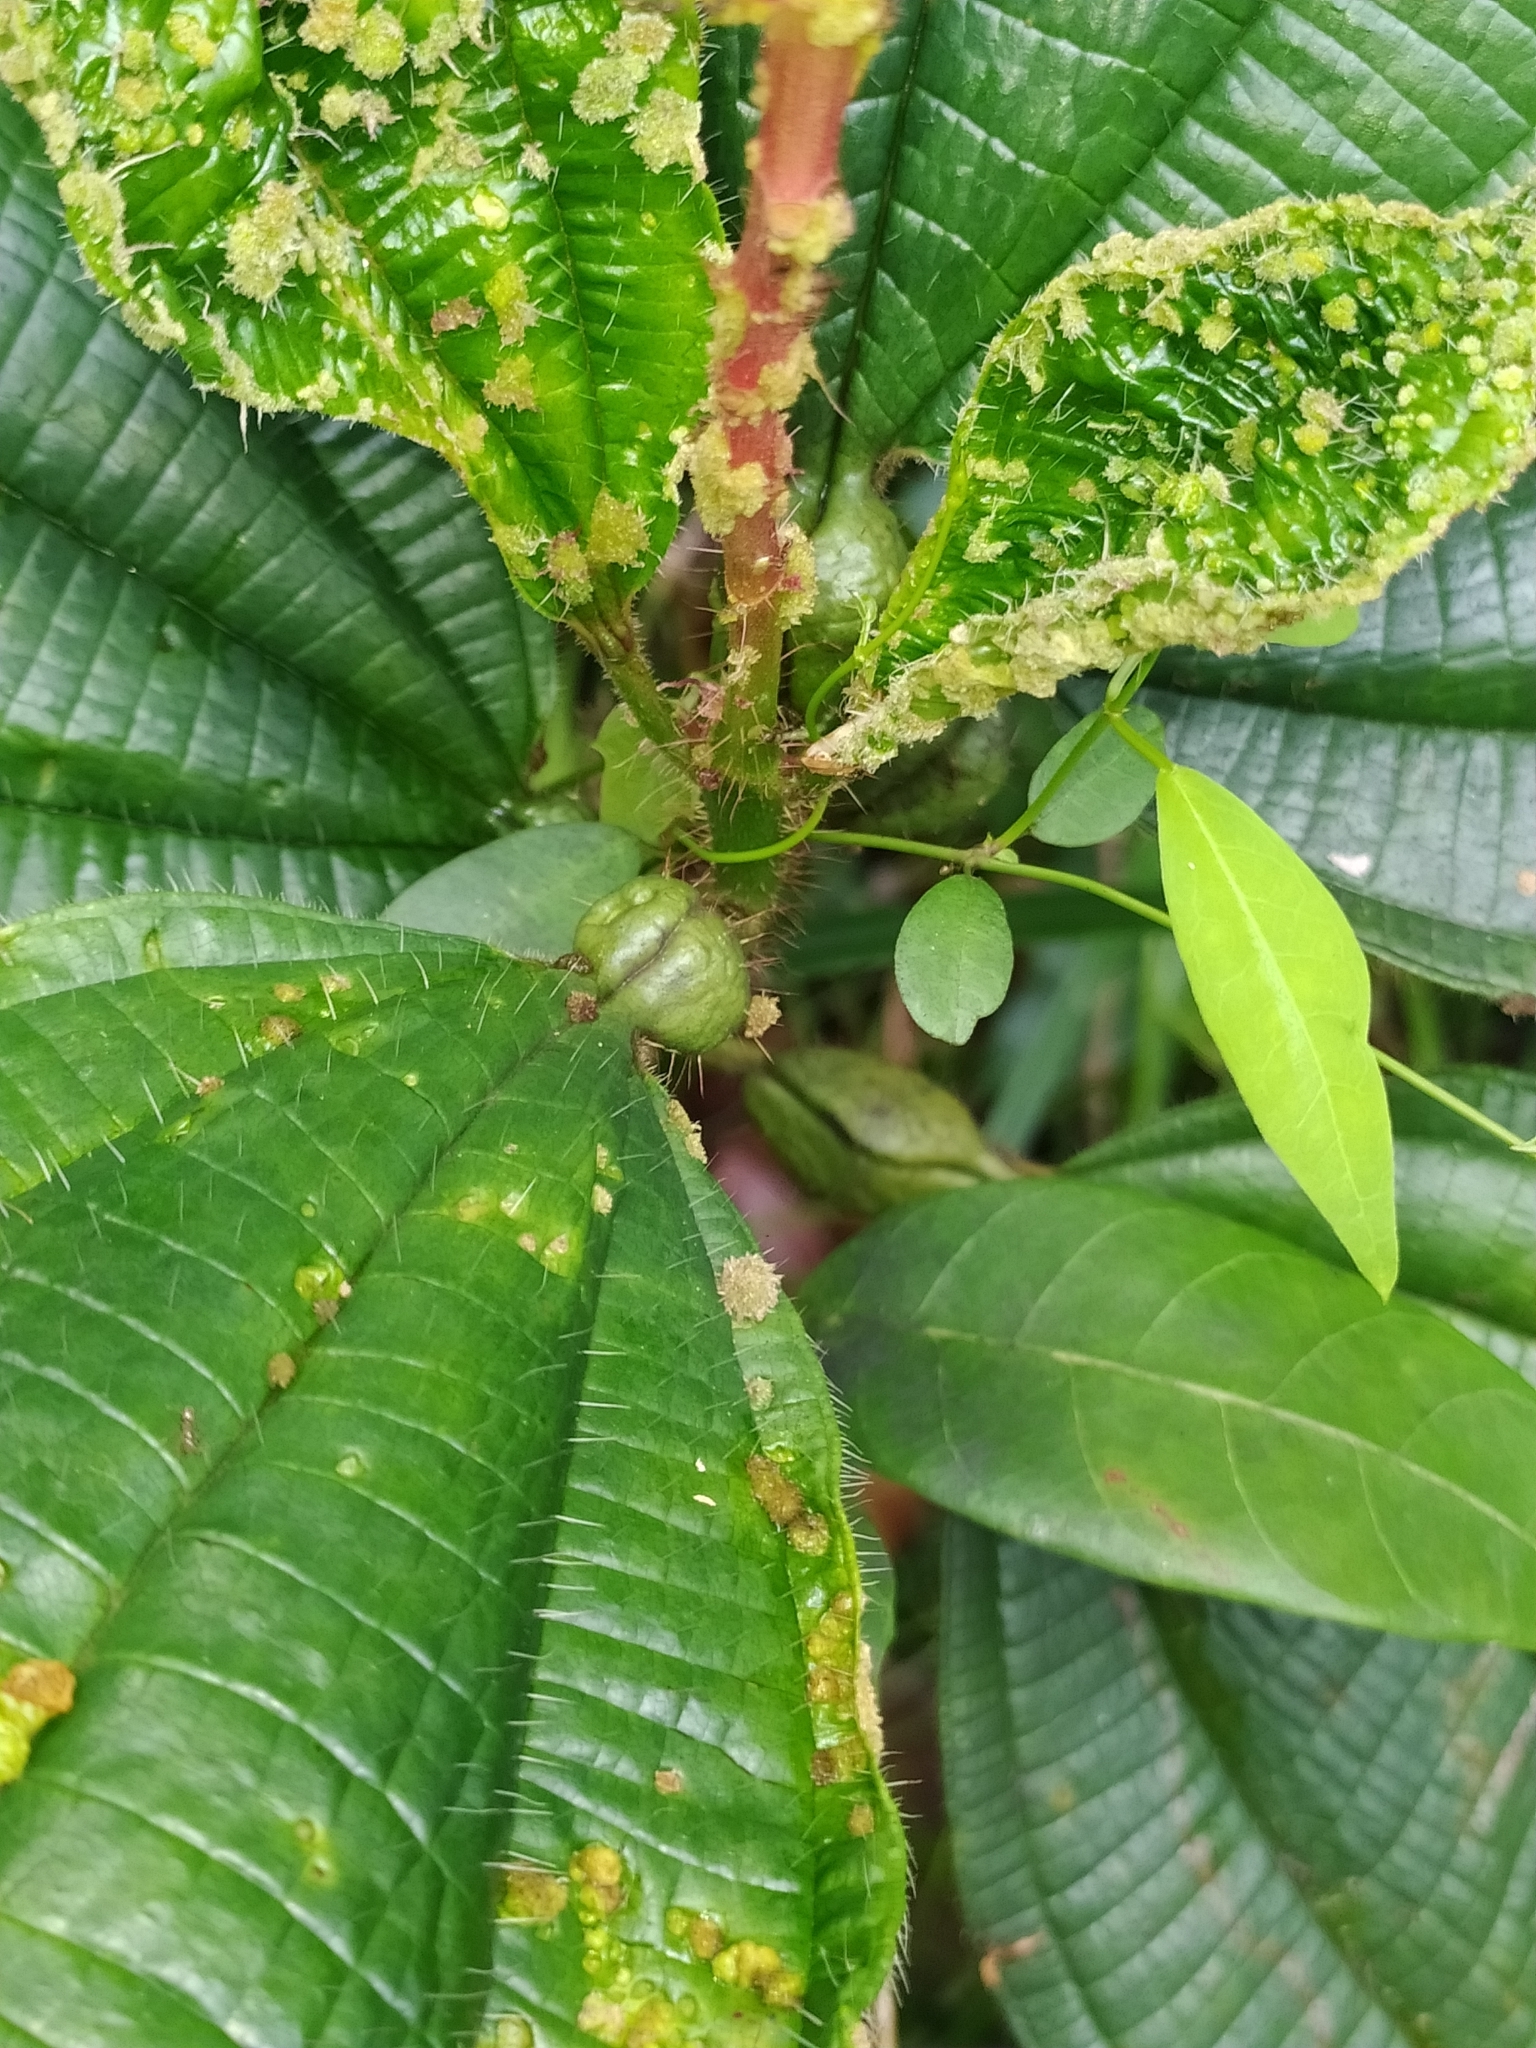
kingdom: Plantae
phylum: Tracheophyta
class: Magnoliopsida
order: Myrtales
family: Melastomataceae
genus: Miconia
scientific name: Miconia tococa
